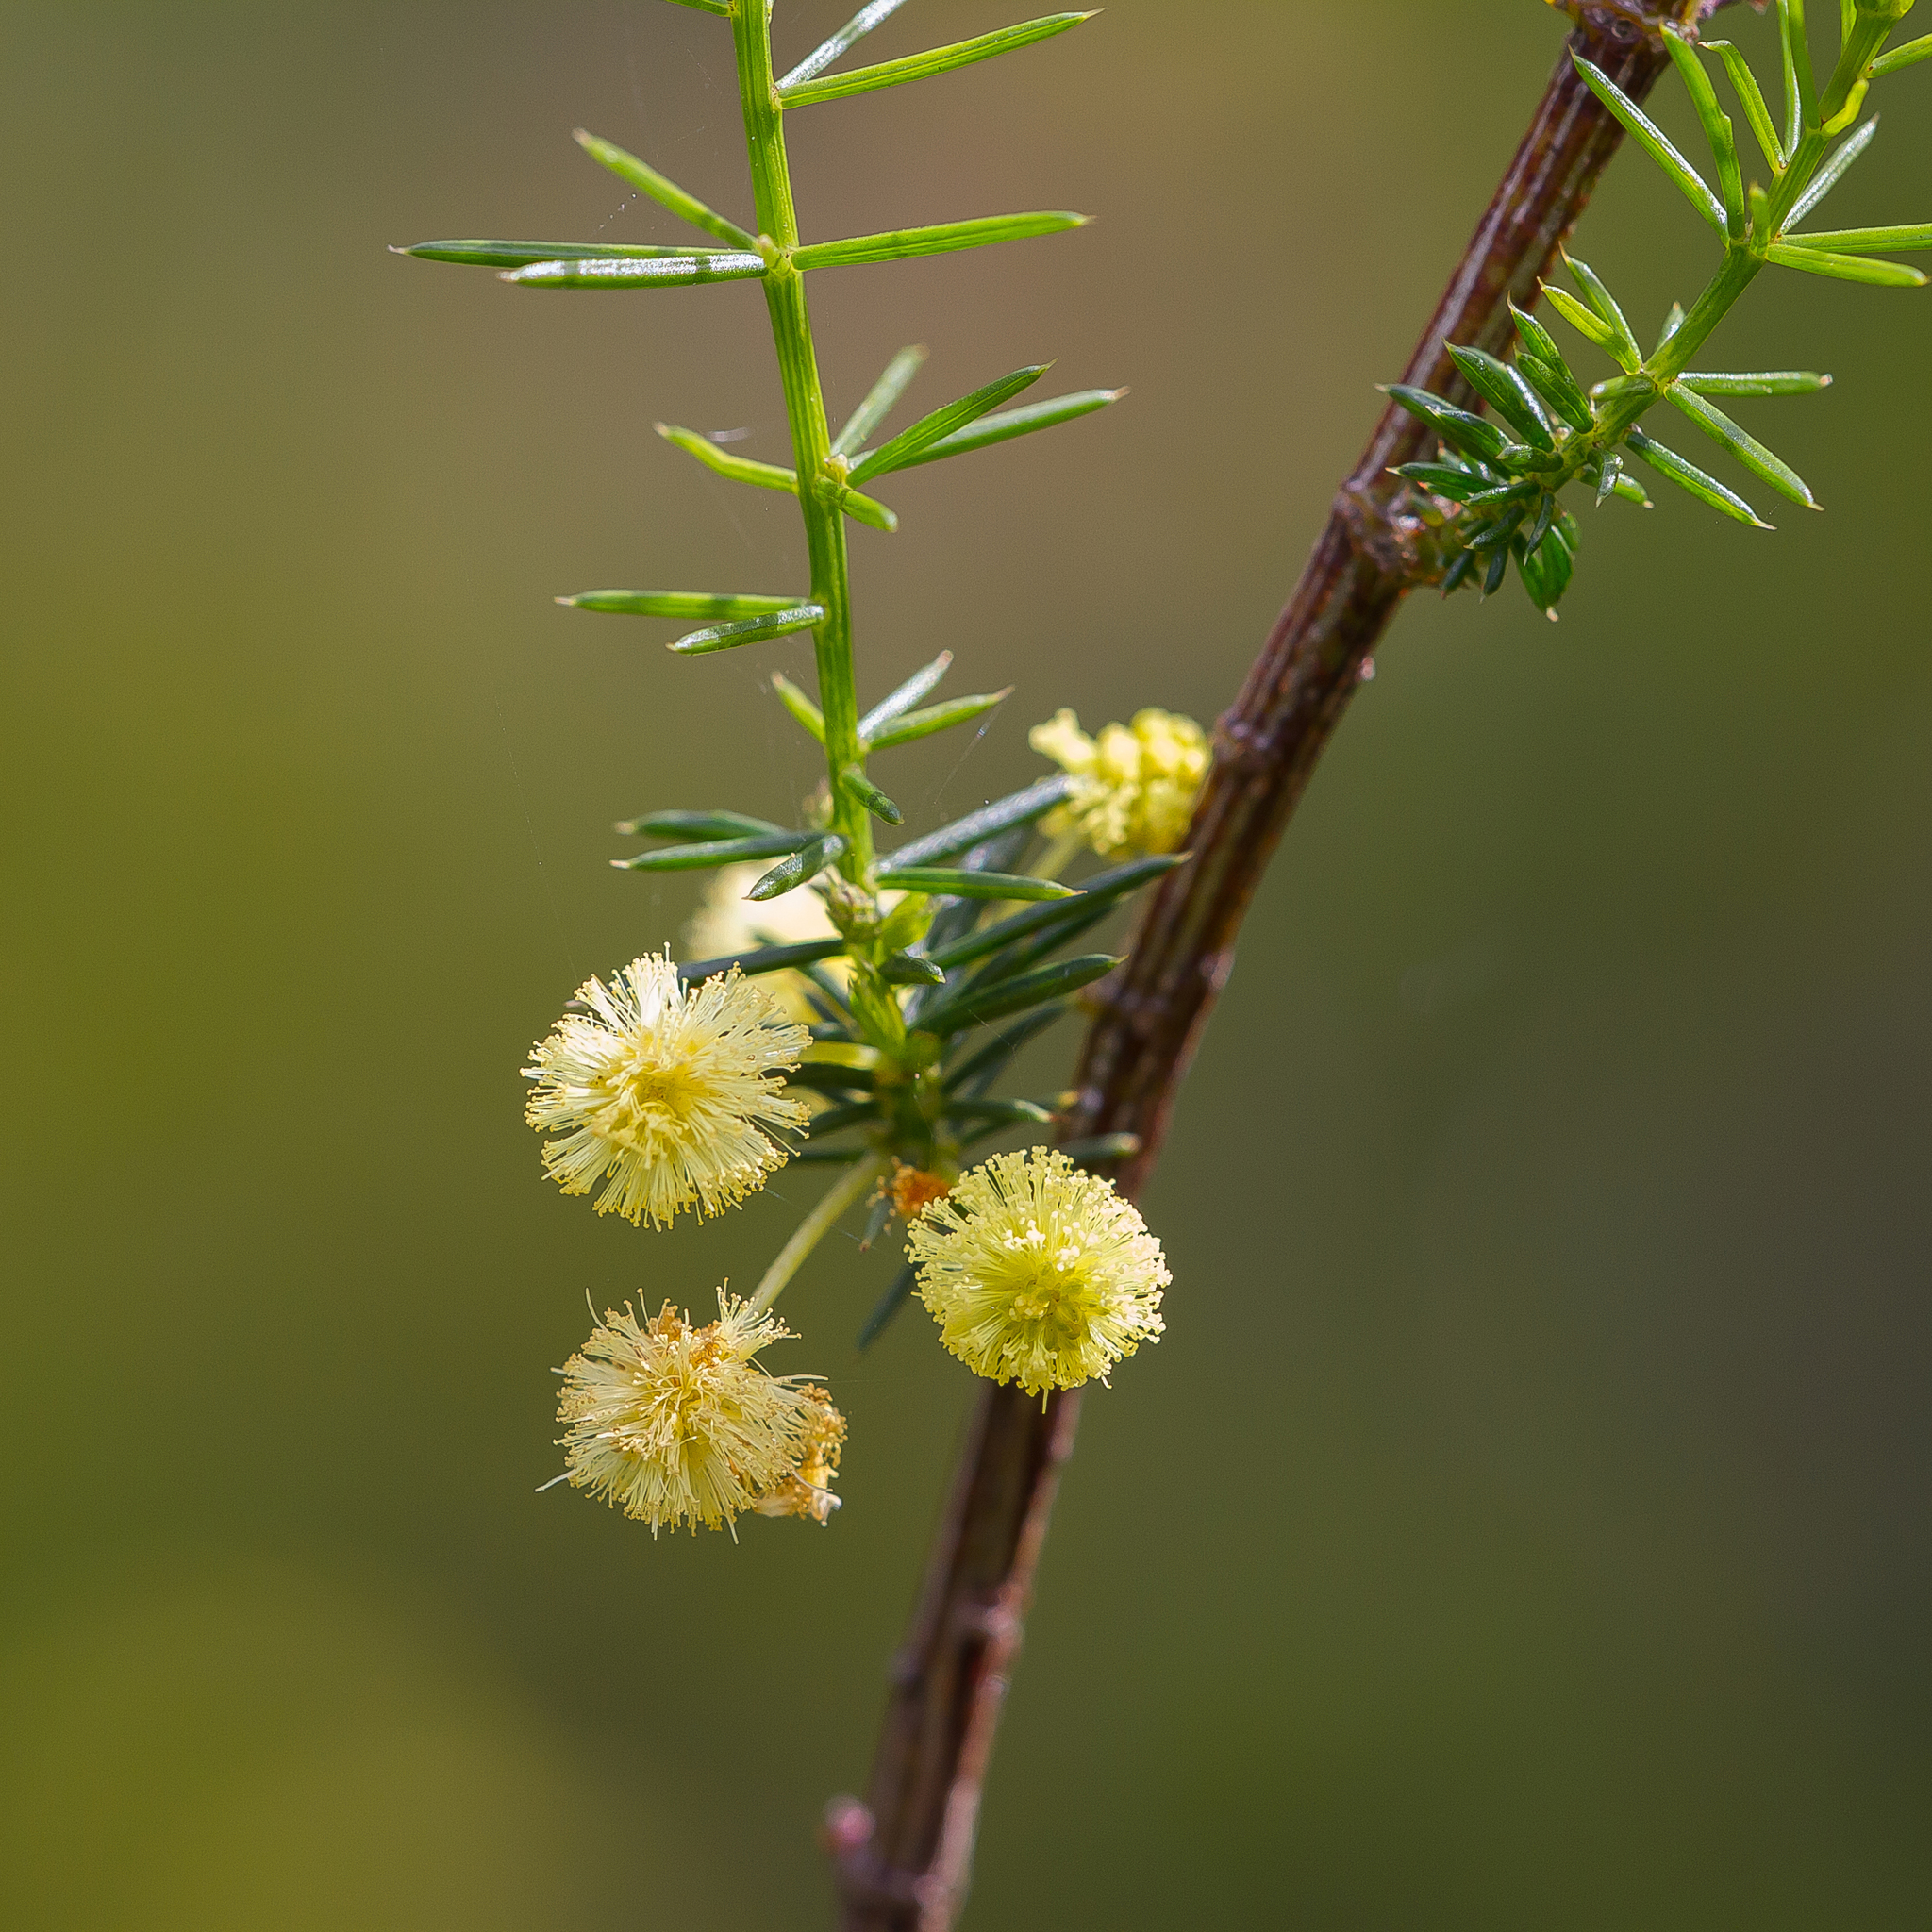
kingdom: Plantae
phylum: Tracheophyta
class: Magnoliopsida
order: Fabales
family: Fabaceae
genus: Acacia
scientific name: Acacia verticillata
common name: Prickly moses
